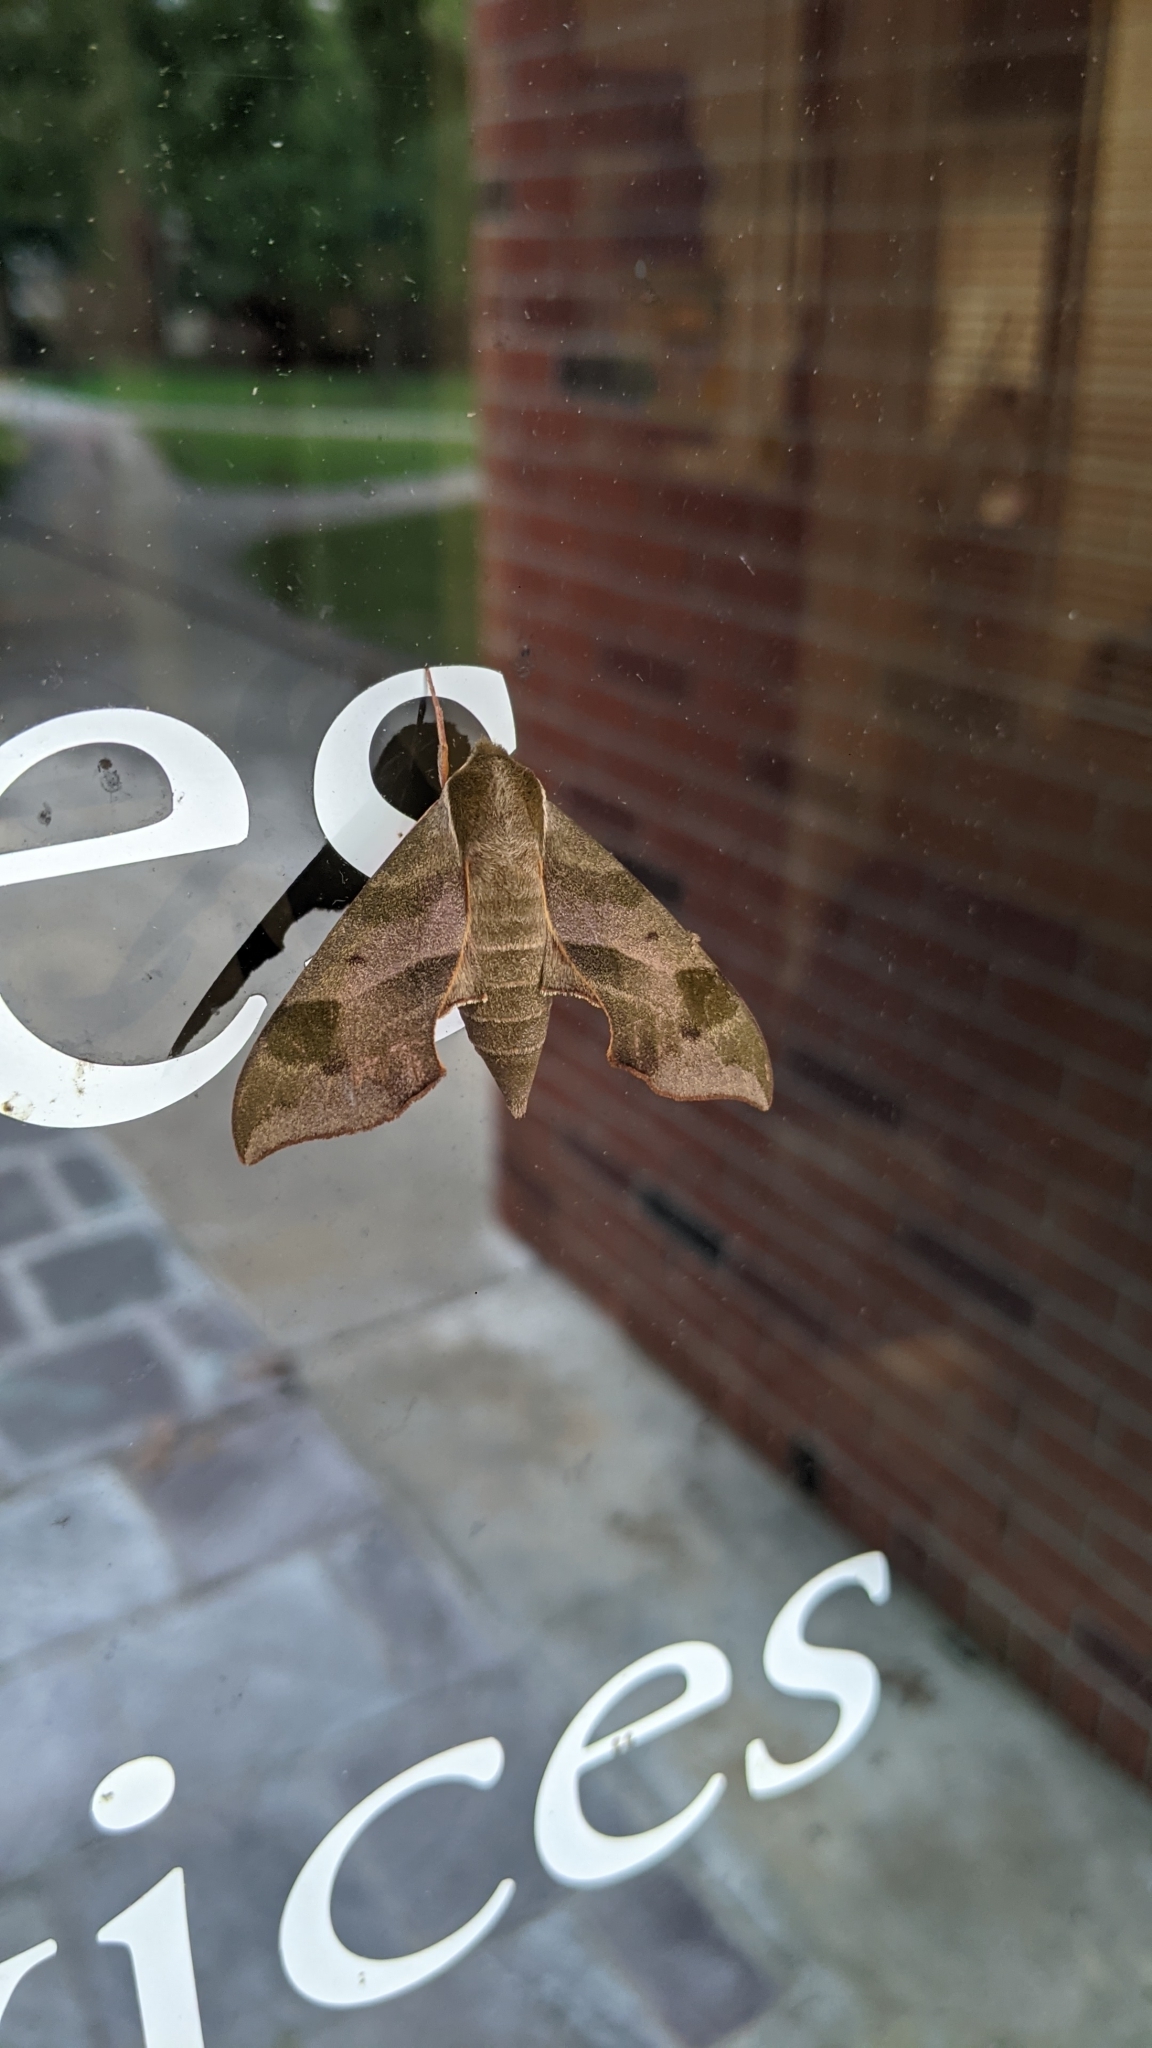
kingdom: Animalia
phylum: Arthropoda
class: Insecta
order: Lepidoptera
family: Sphingidae
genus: Darapsa
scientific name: Darapsa myron
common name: Hog sphinx
